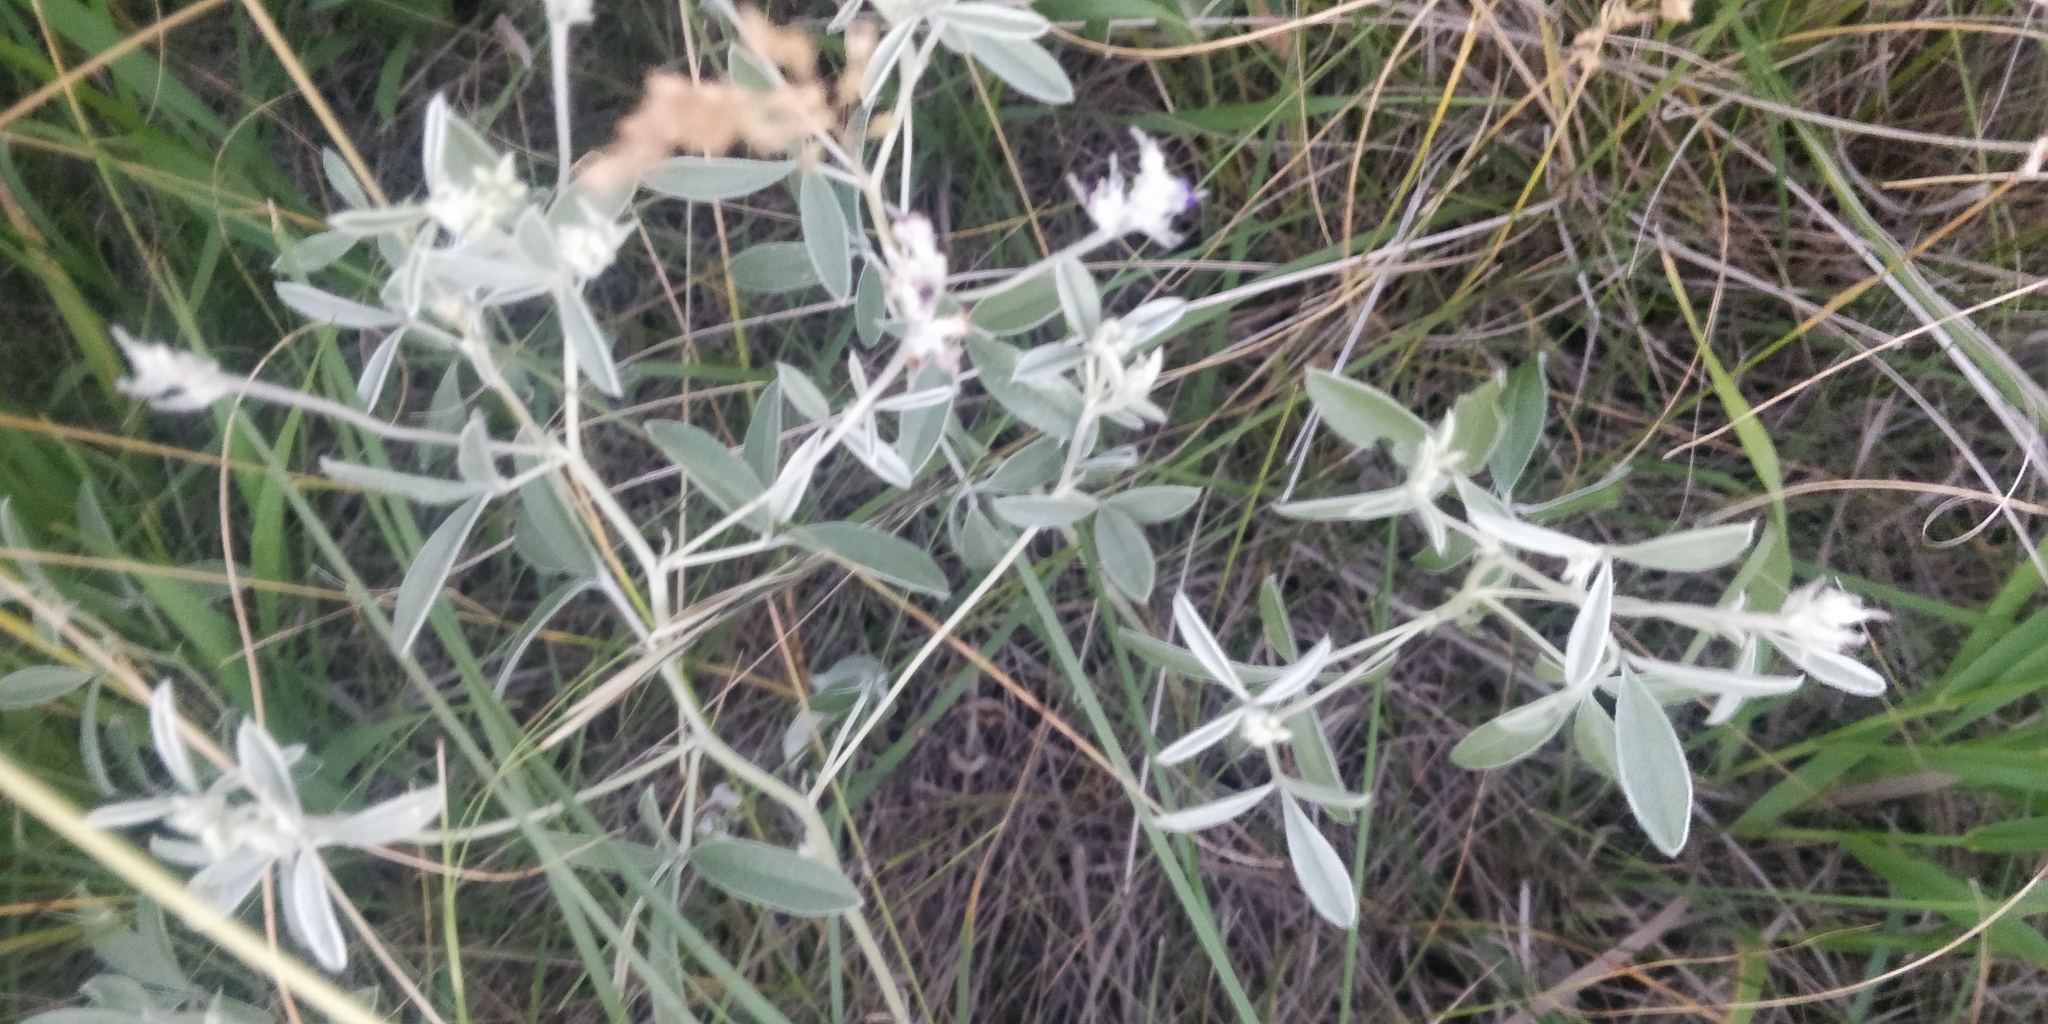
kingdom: Plantae
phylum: Tracheophyta
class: Magnoliopsida
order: Fabales
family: Fabaceae
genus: Pediomelum
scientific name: Pediomelum argophyllum
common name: Silver-leaved indian breadroot
